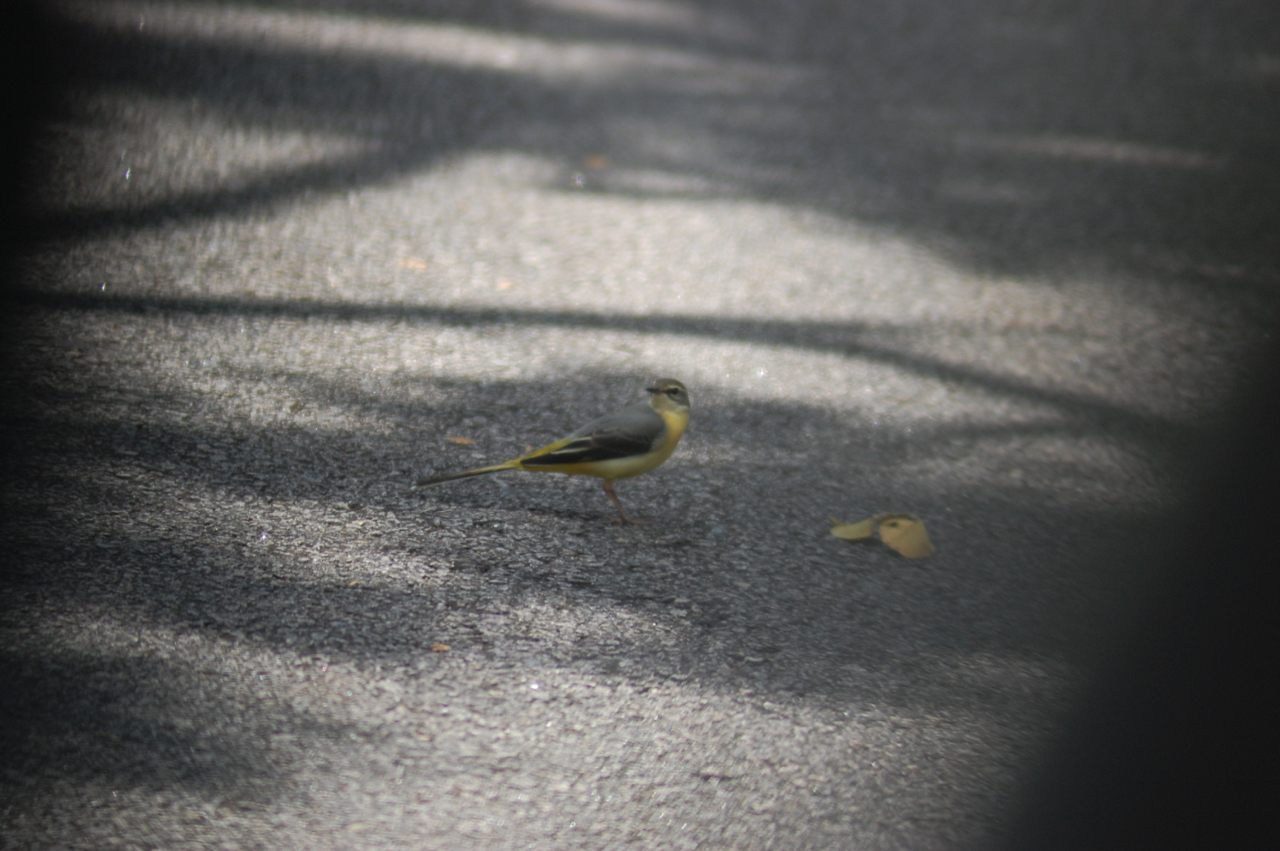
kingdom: Animalia
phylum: Chordata
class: Aves
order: Passeriformes
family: Motacillidae
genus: Motacilla
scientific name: Motacilla cinerea
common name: Grey wagtail
